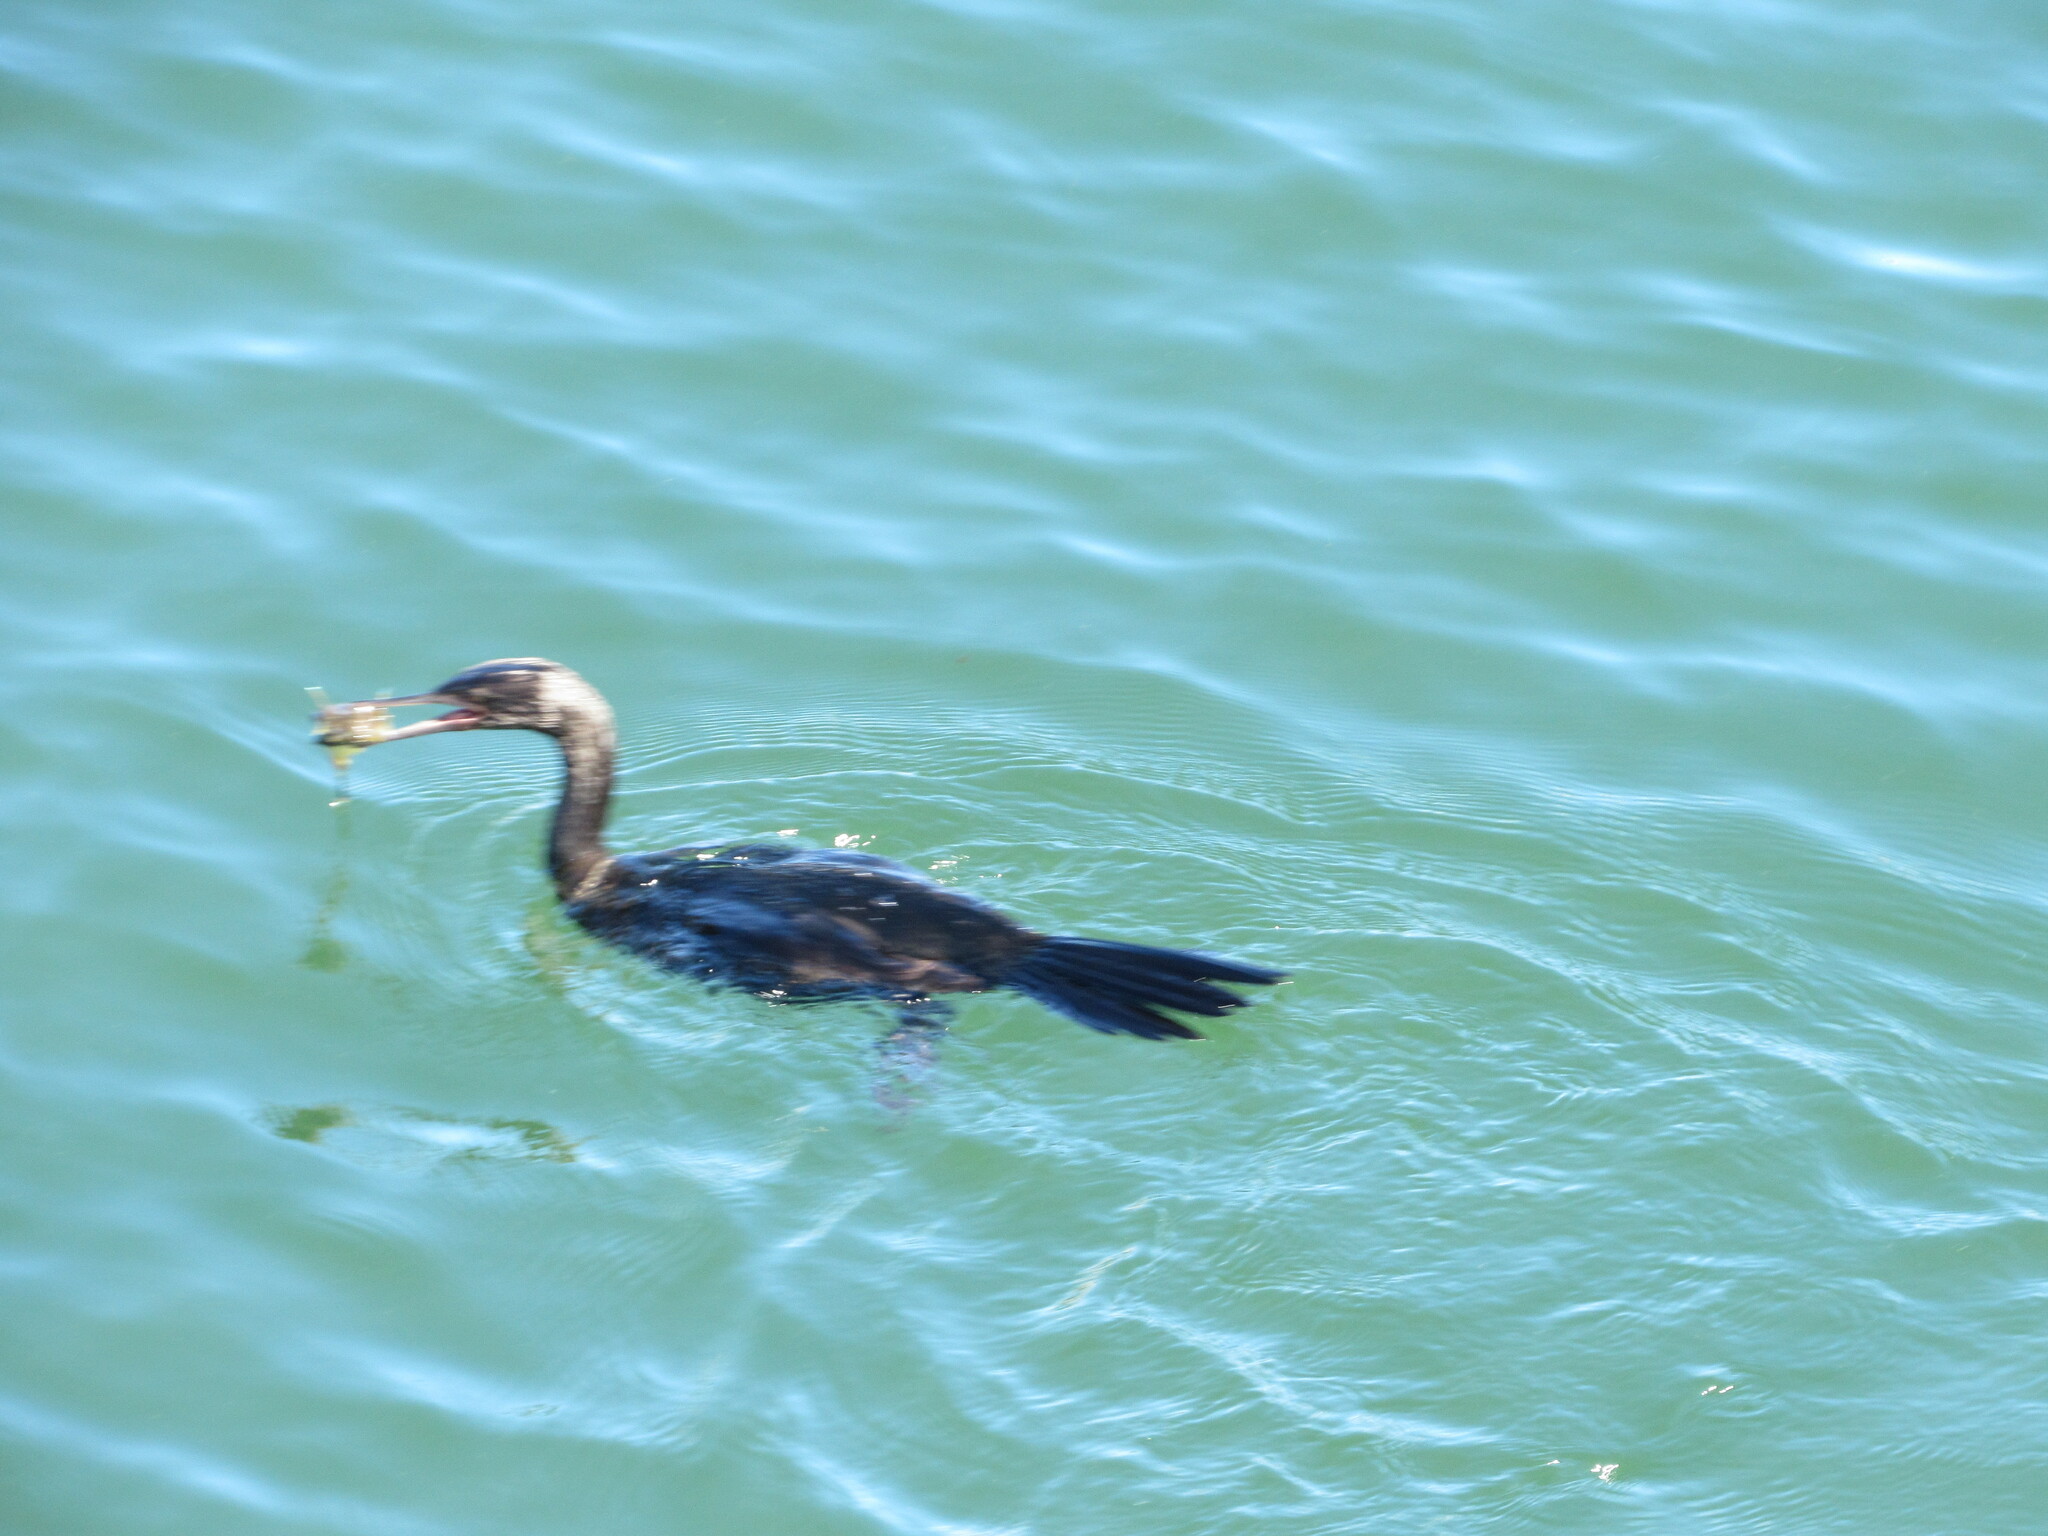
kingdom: Animalia
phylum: Chordata
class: Aves
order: Suliformes
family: Phalacrocoracidae
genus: Phalacrocorax
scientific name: Phalacrocorax pelagicus
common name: Pelagic cormorant
